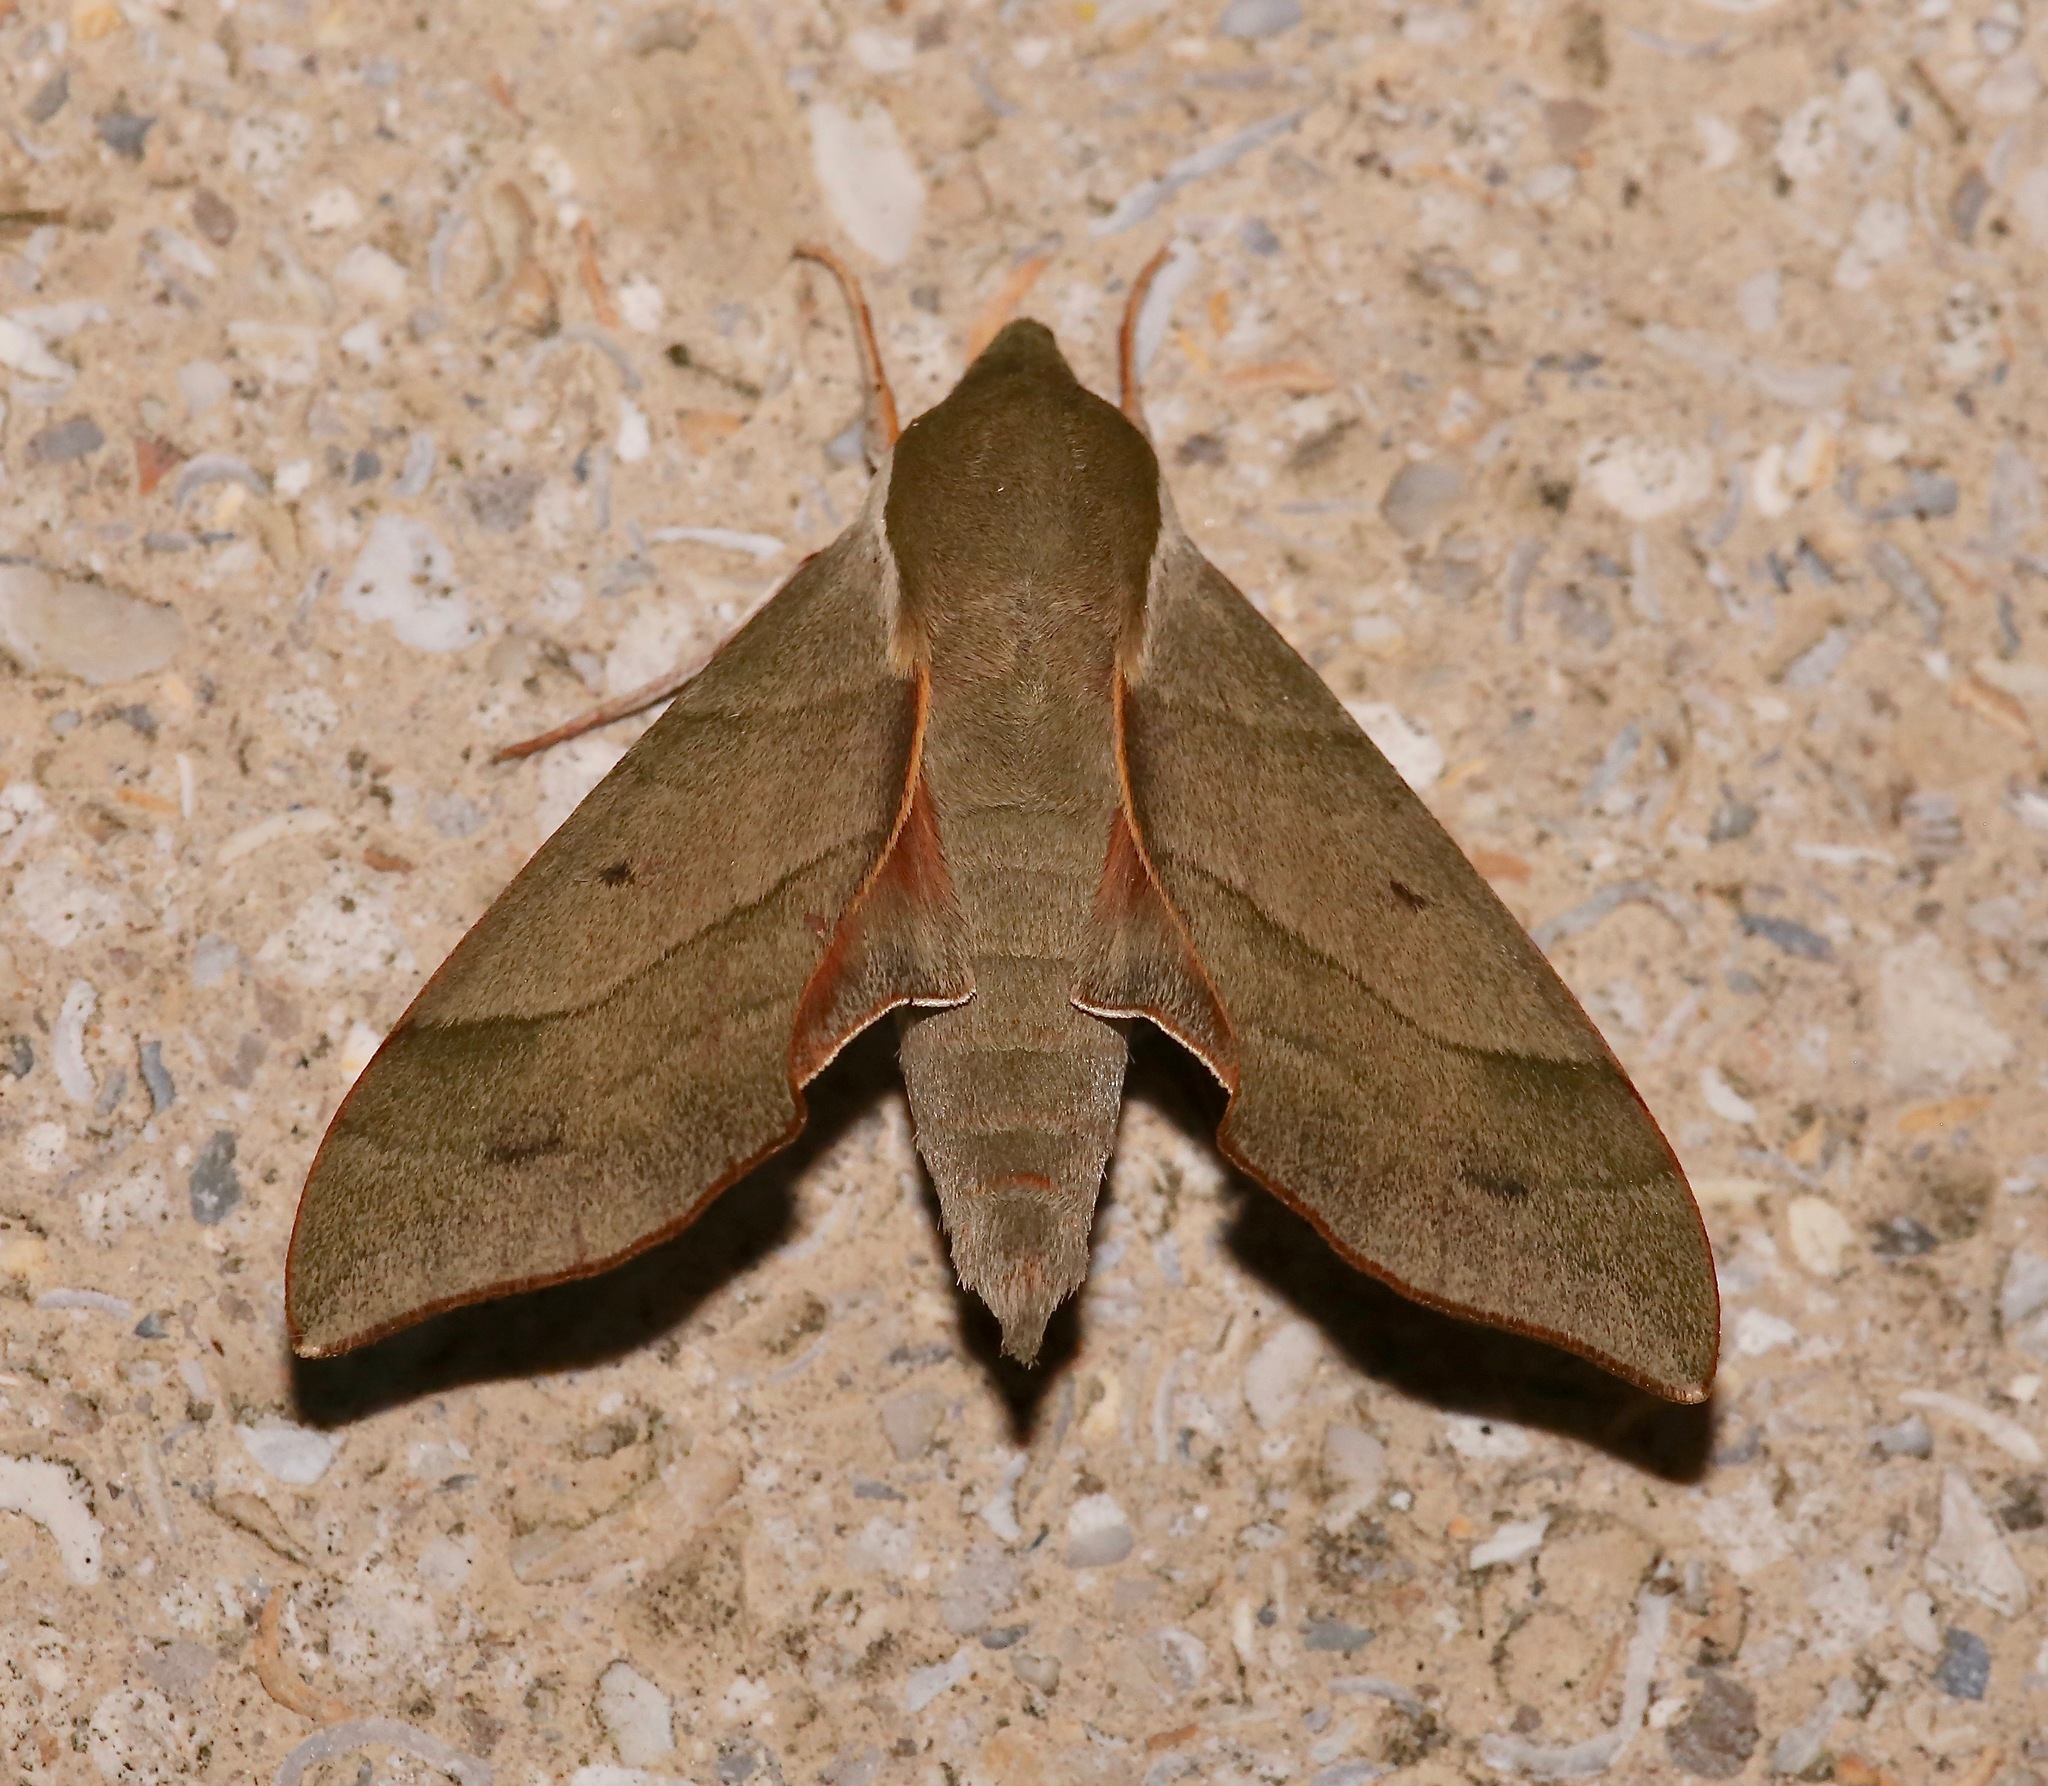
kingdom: Animalia
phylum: Arthropoda
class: Insecta
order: Lepidoptera
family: Sphingidae
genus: Darapsa
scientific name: Darapsa myron
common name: Hog sphinx
